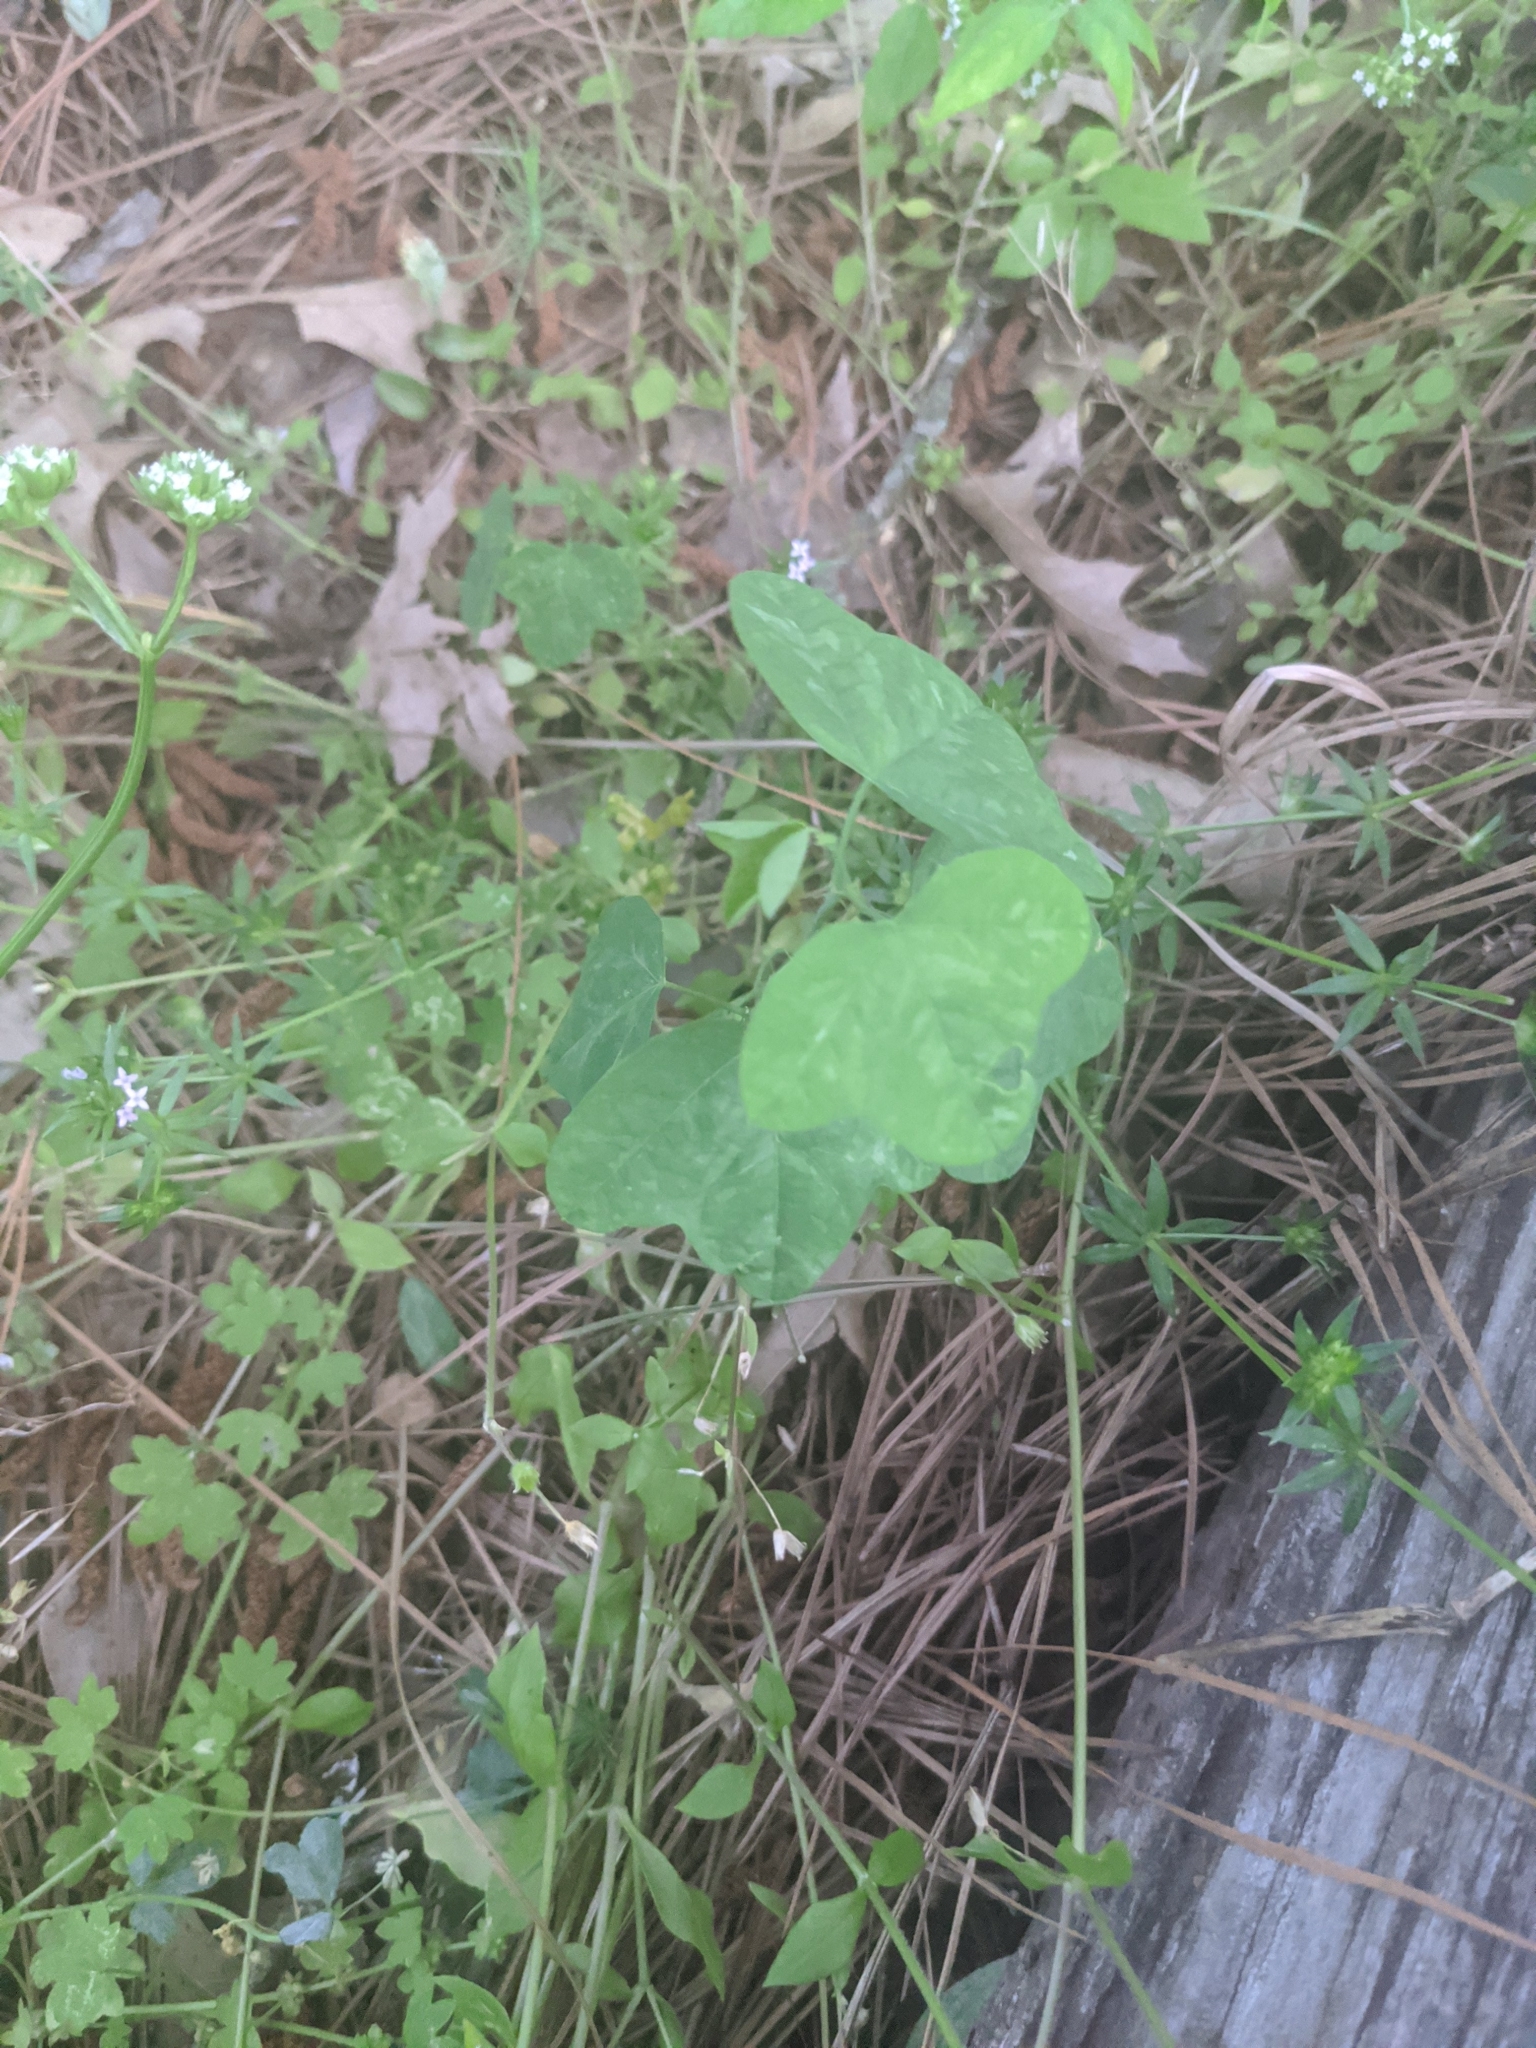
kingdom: Plantae
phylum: Tracheophyta
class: Magnoliopsida
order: Malpighiales
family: Passifloraceae
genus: Passiflora
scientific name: Passiflora lutea
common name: Yellow passionflower
